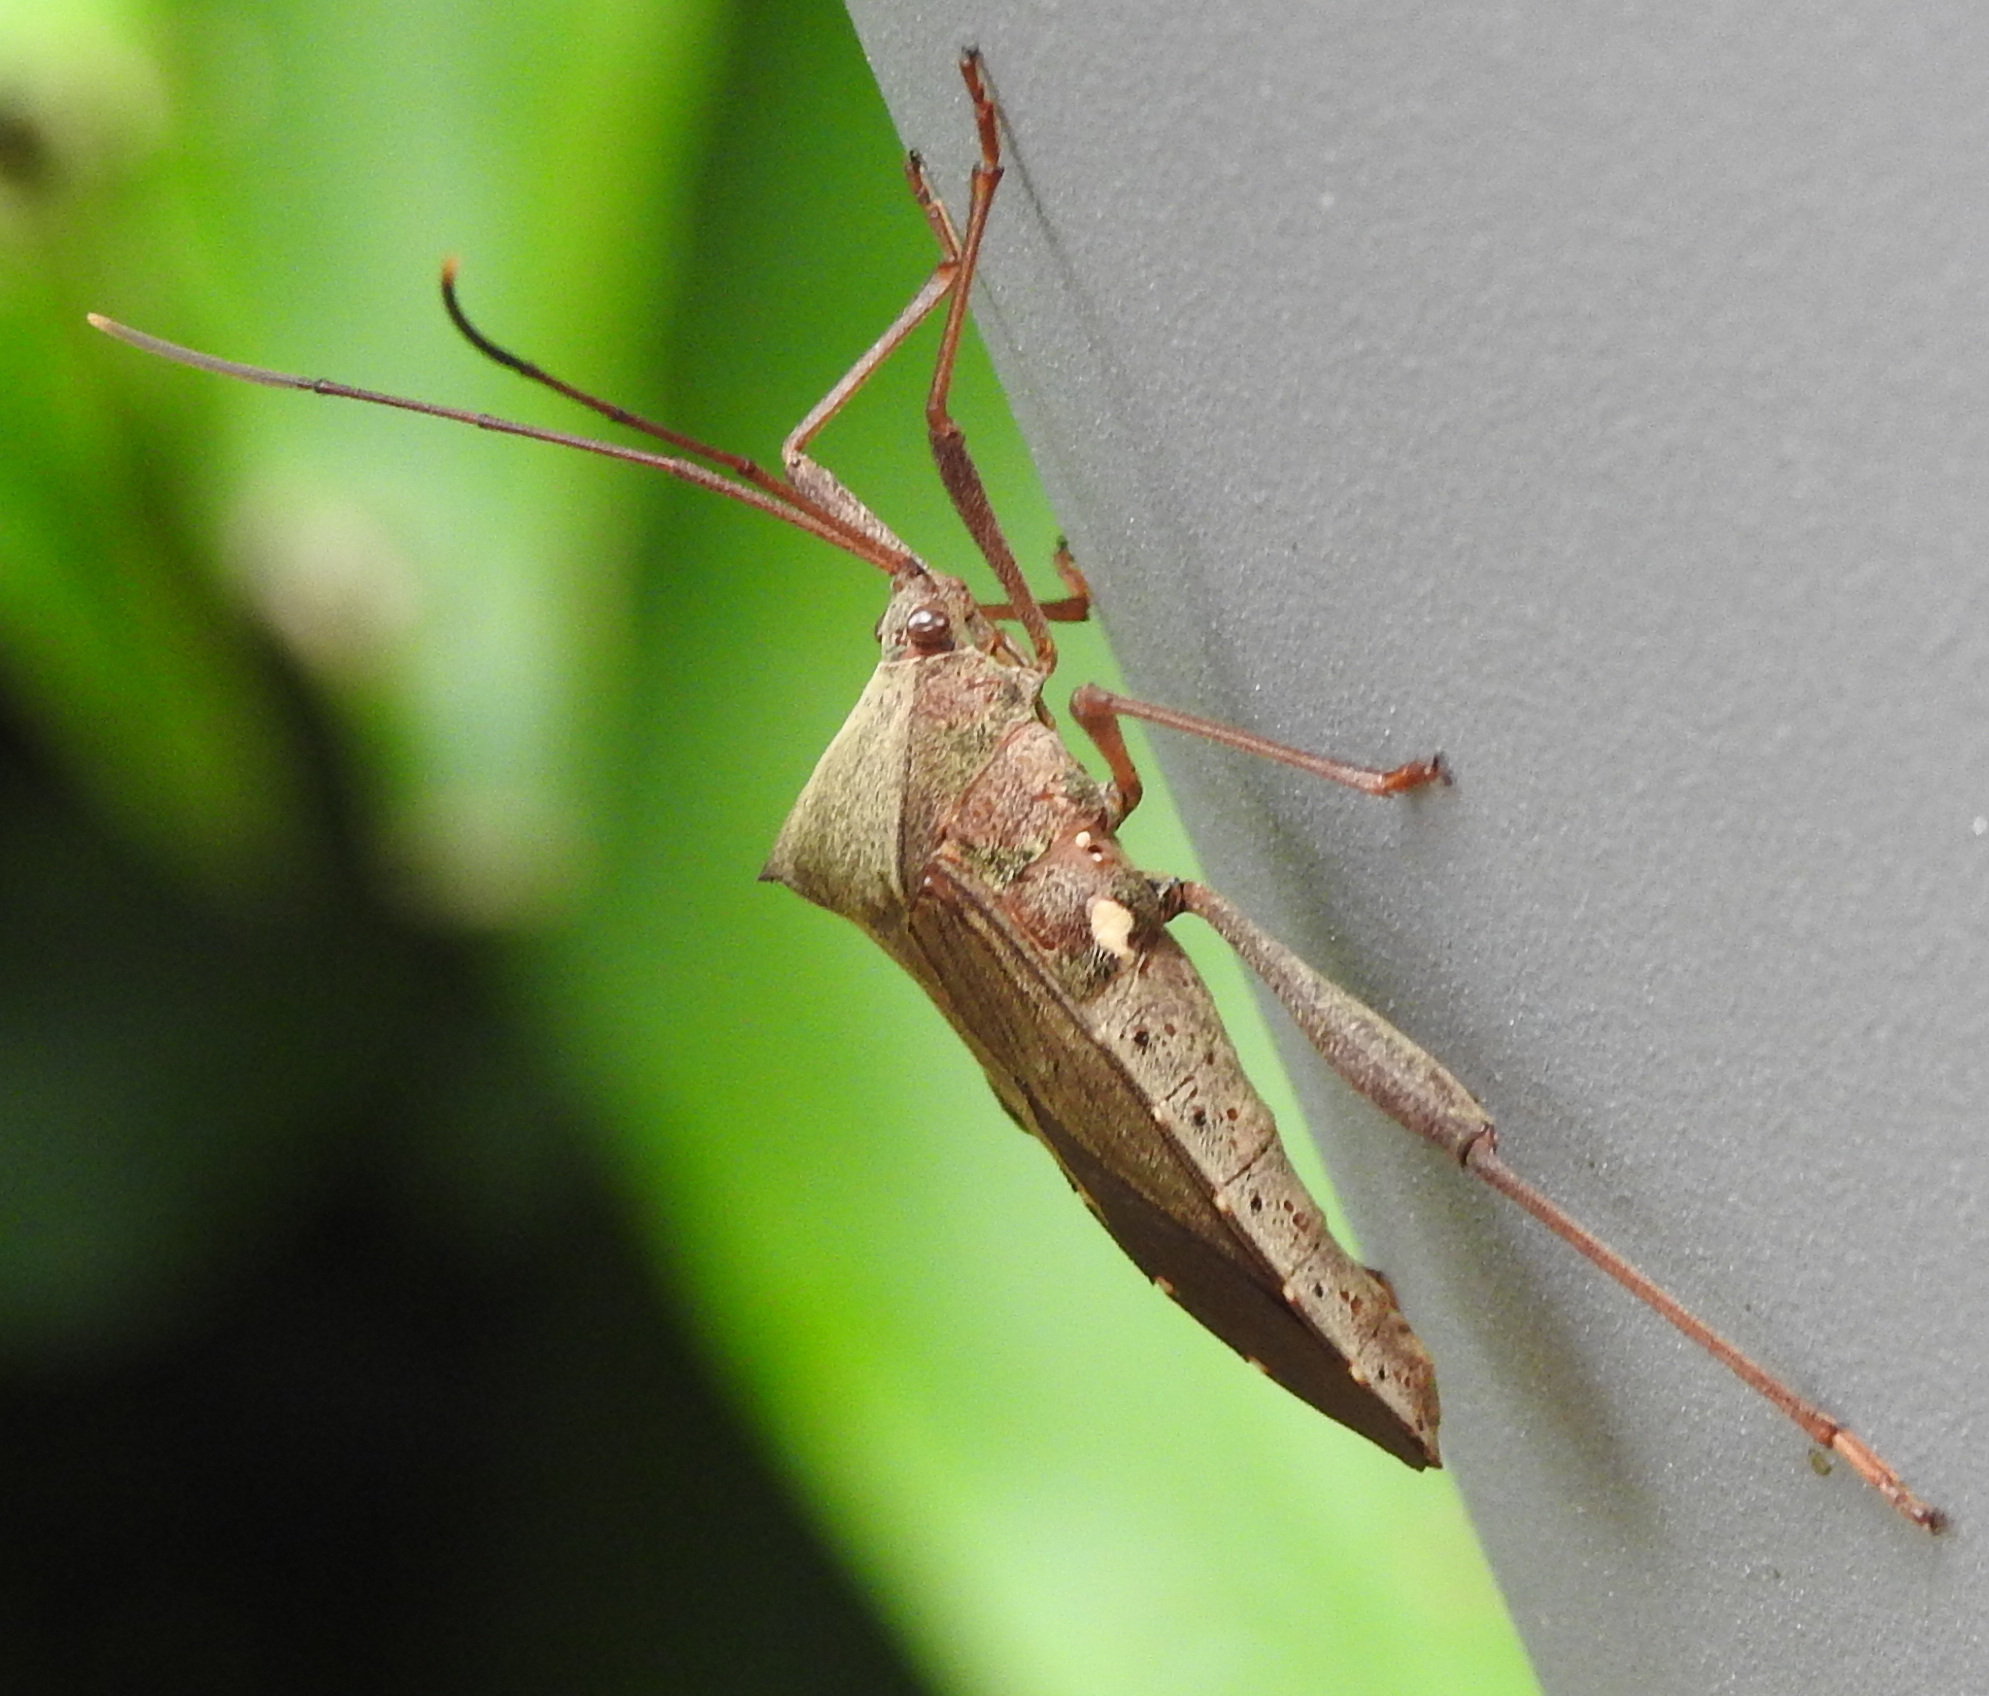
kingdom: Animalia
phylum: Arthropoda
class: Insecta
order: Hemiptera
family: Coreidae
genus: Mictis
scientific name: Mictis longicornis
